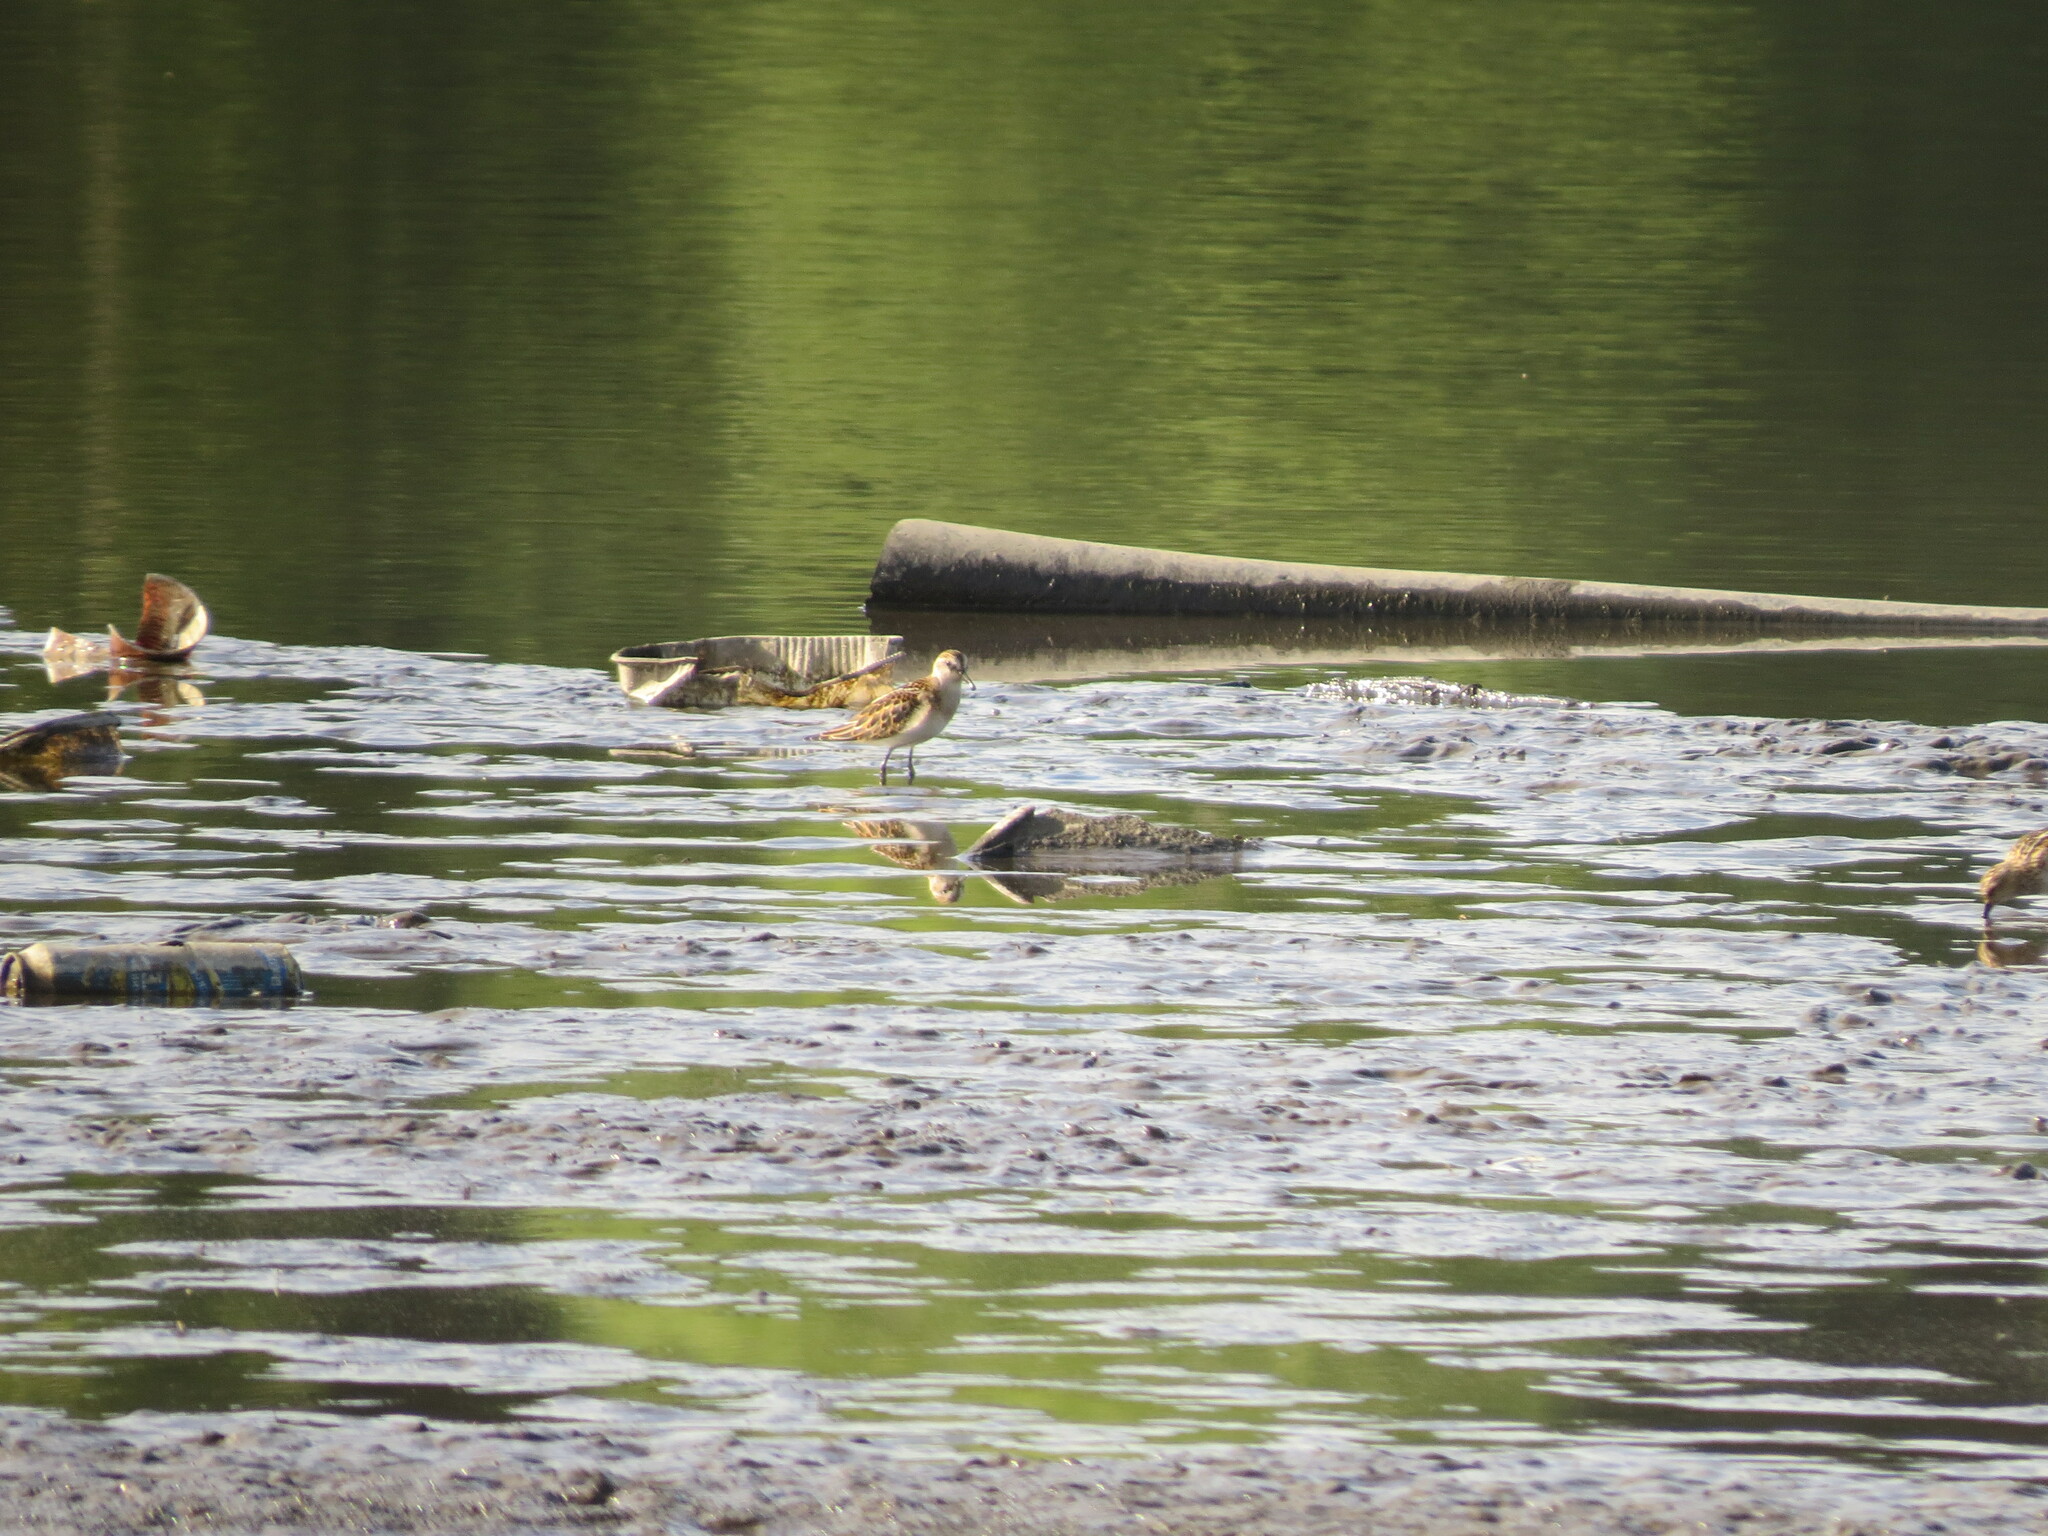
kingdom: Animalia
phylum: Chordata
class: Aves
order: Charadriiformes
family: Scolopacidae
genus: Calidris
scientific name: Calidris minuta
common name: Little stint
